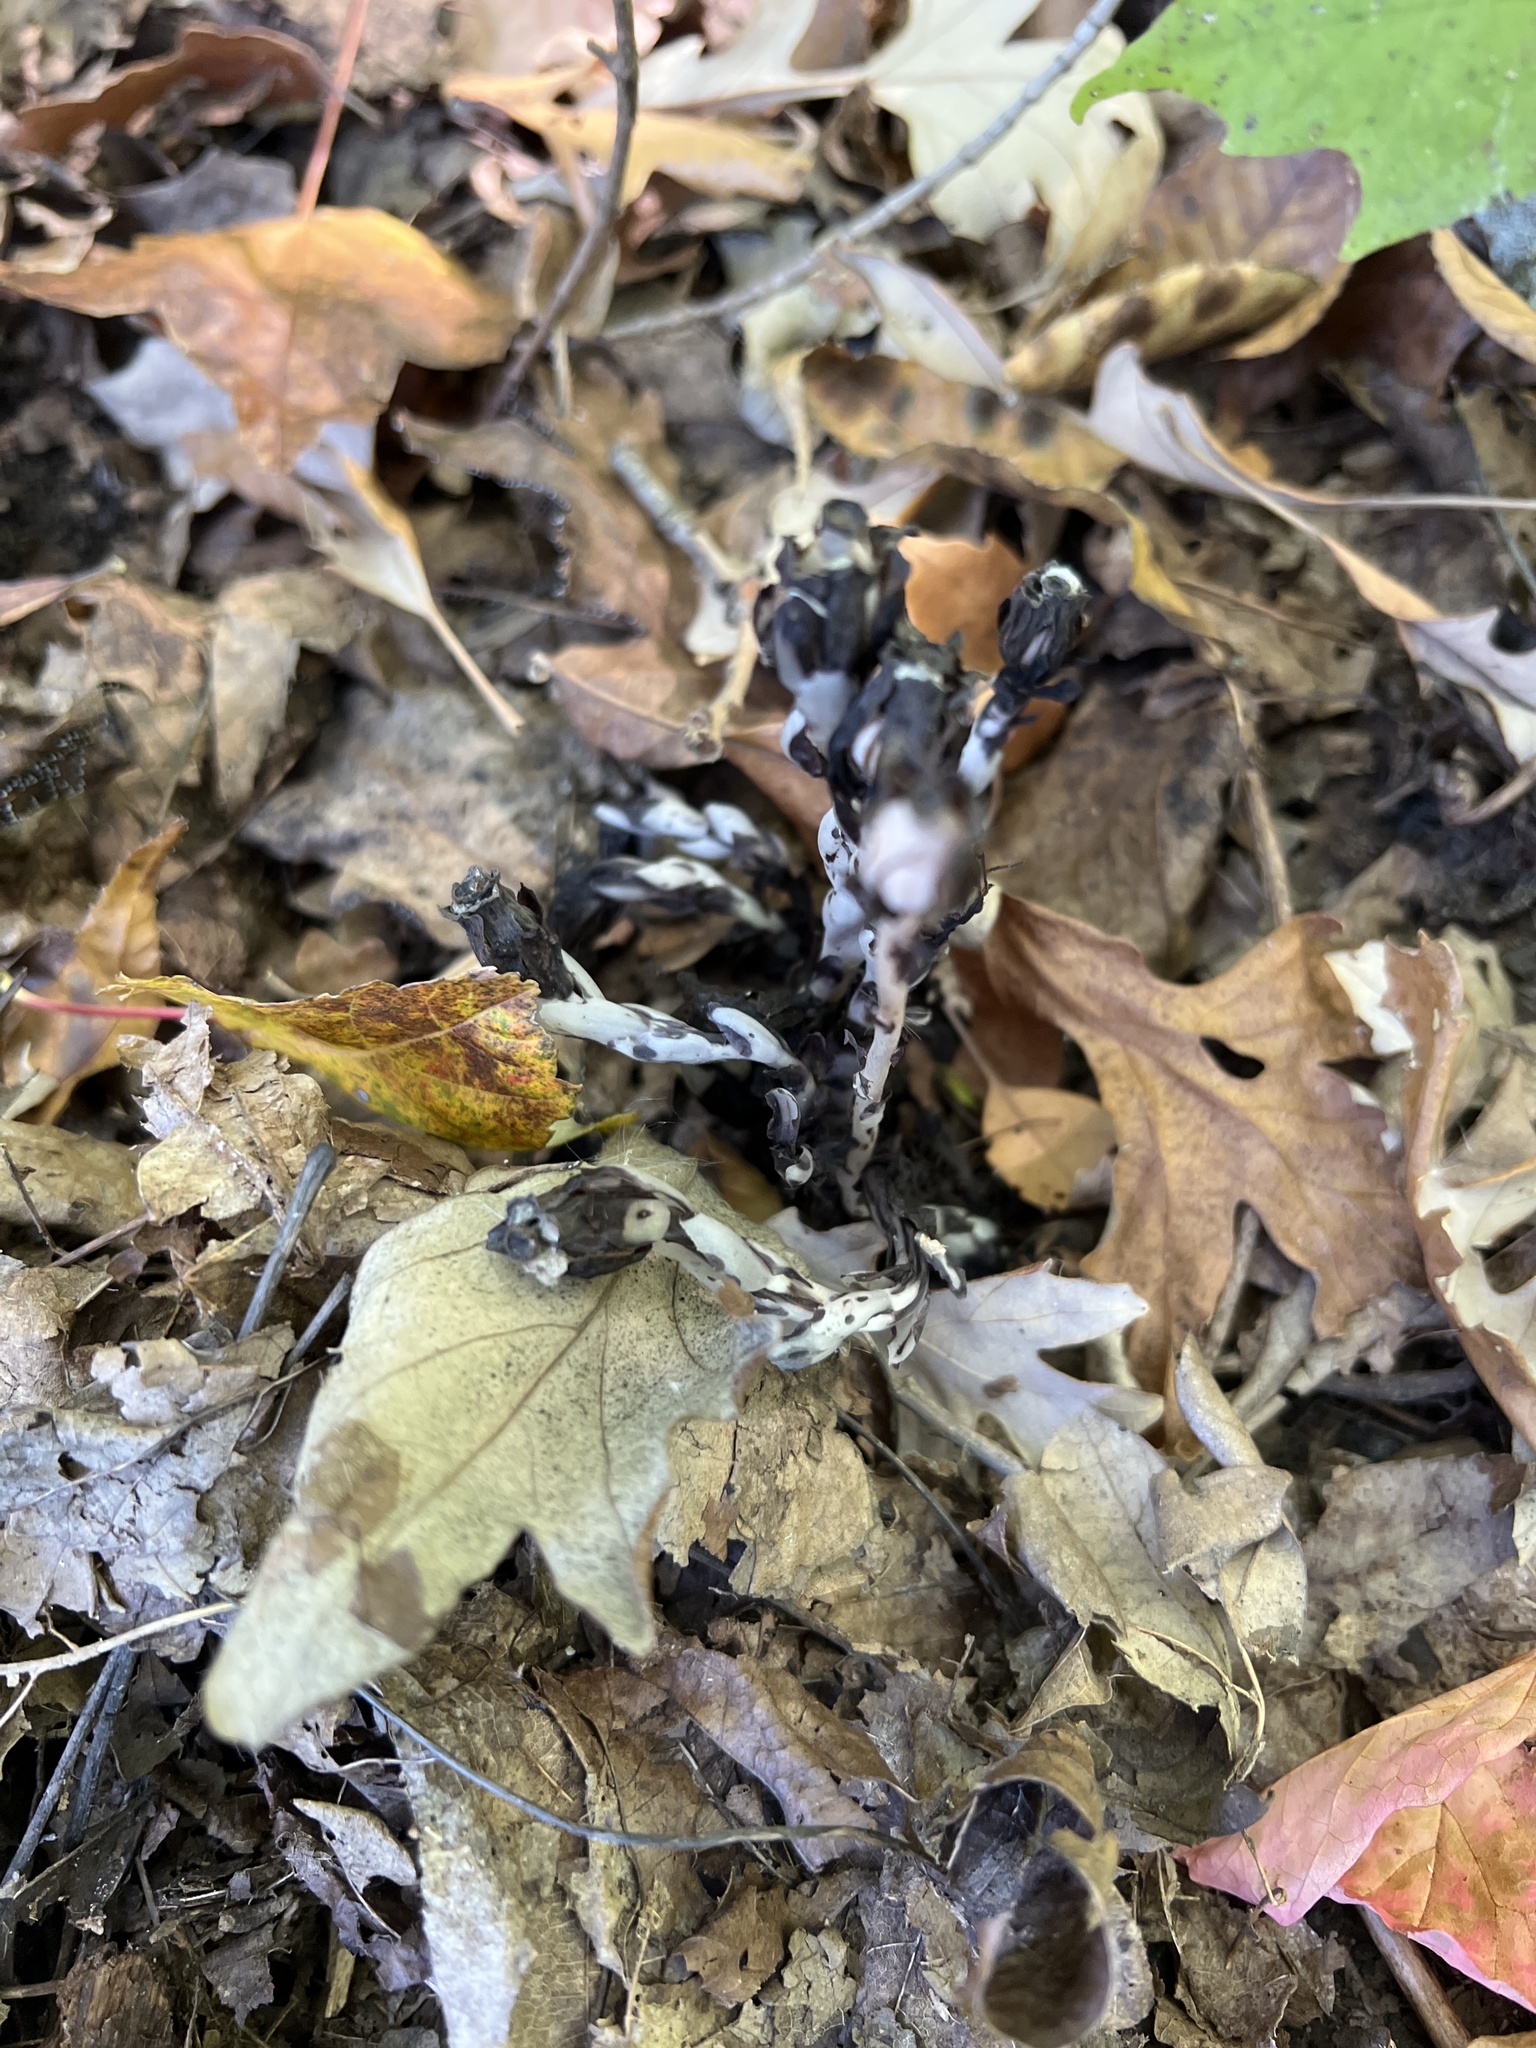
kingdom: Plantae
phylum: Tracheophyta
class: Magnoliopsida
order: Ericales
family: Ericaceae
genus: Monotropa
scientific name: Monotropa uniflora
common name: Convulsion root
